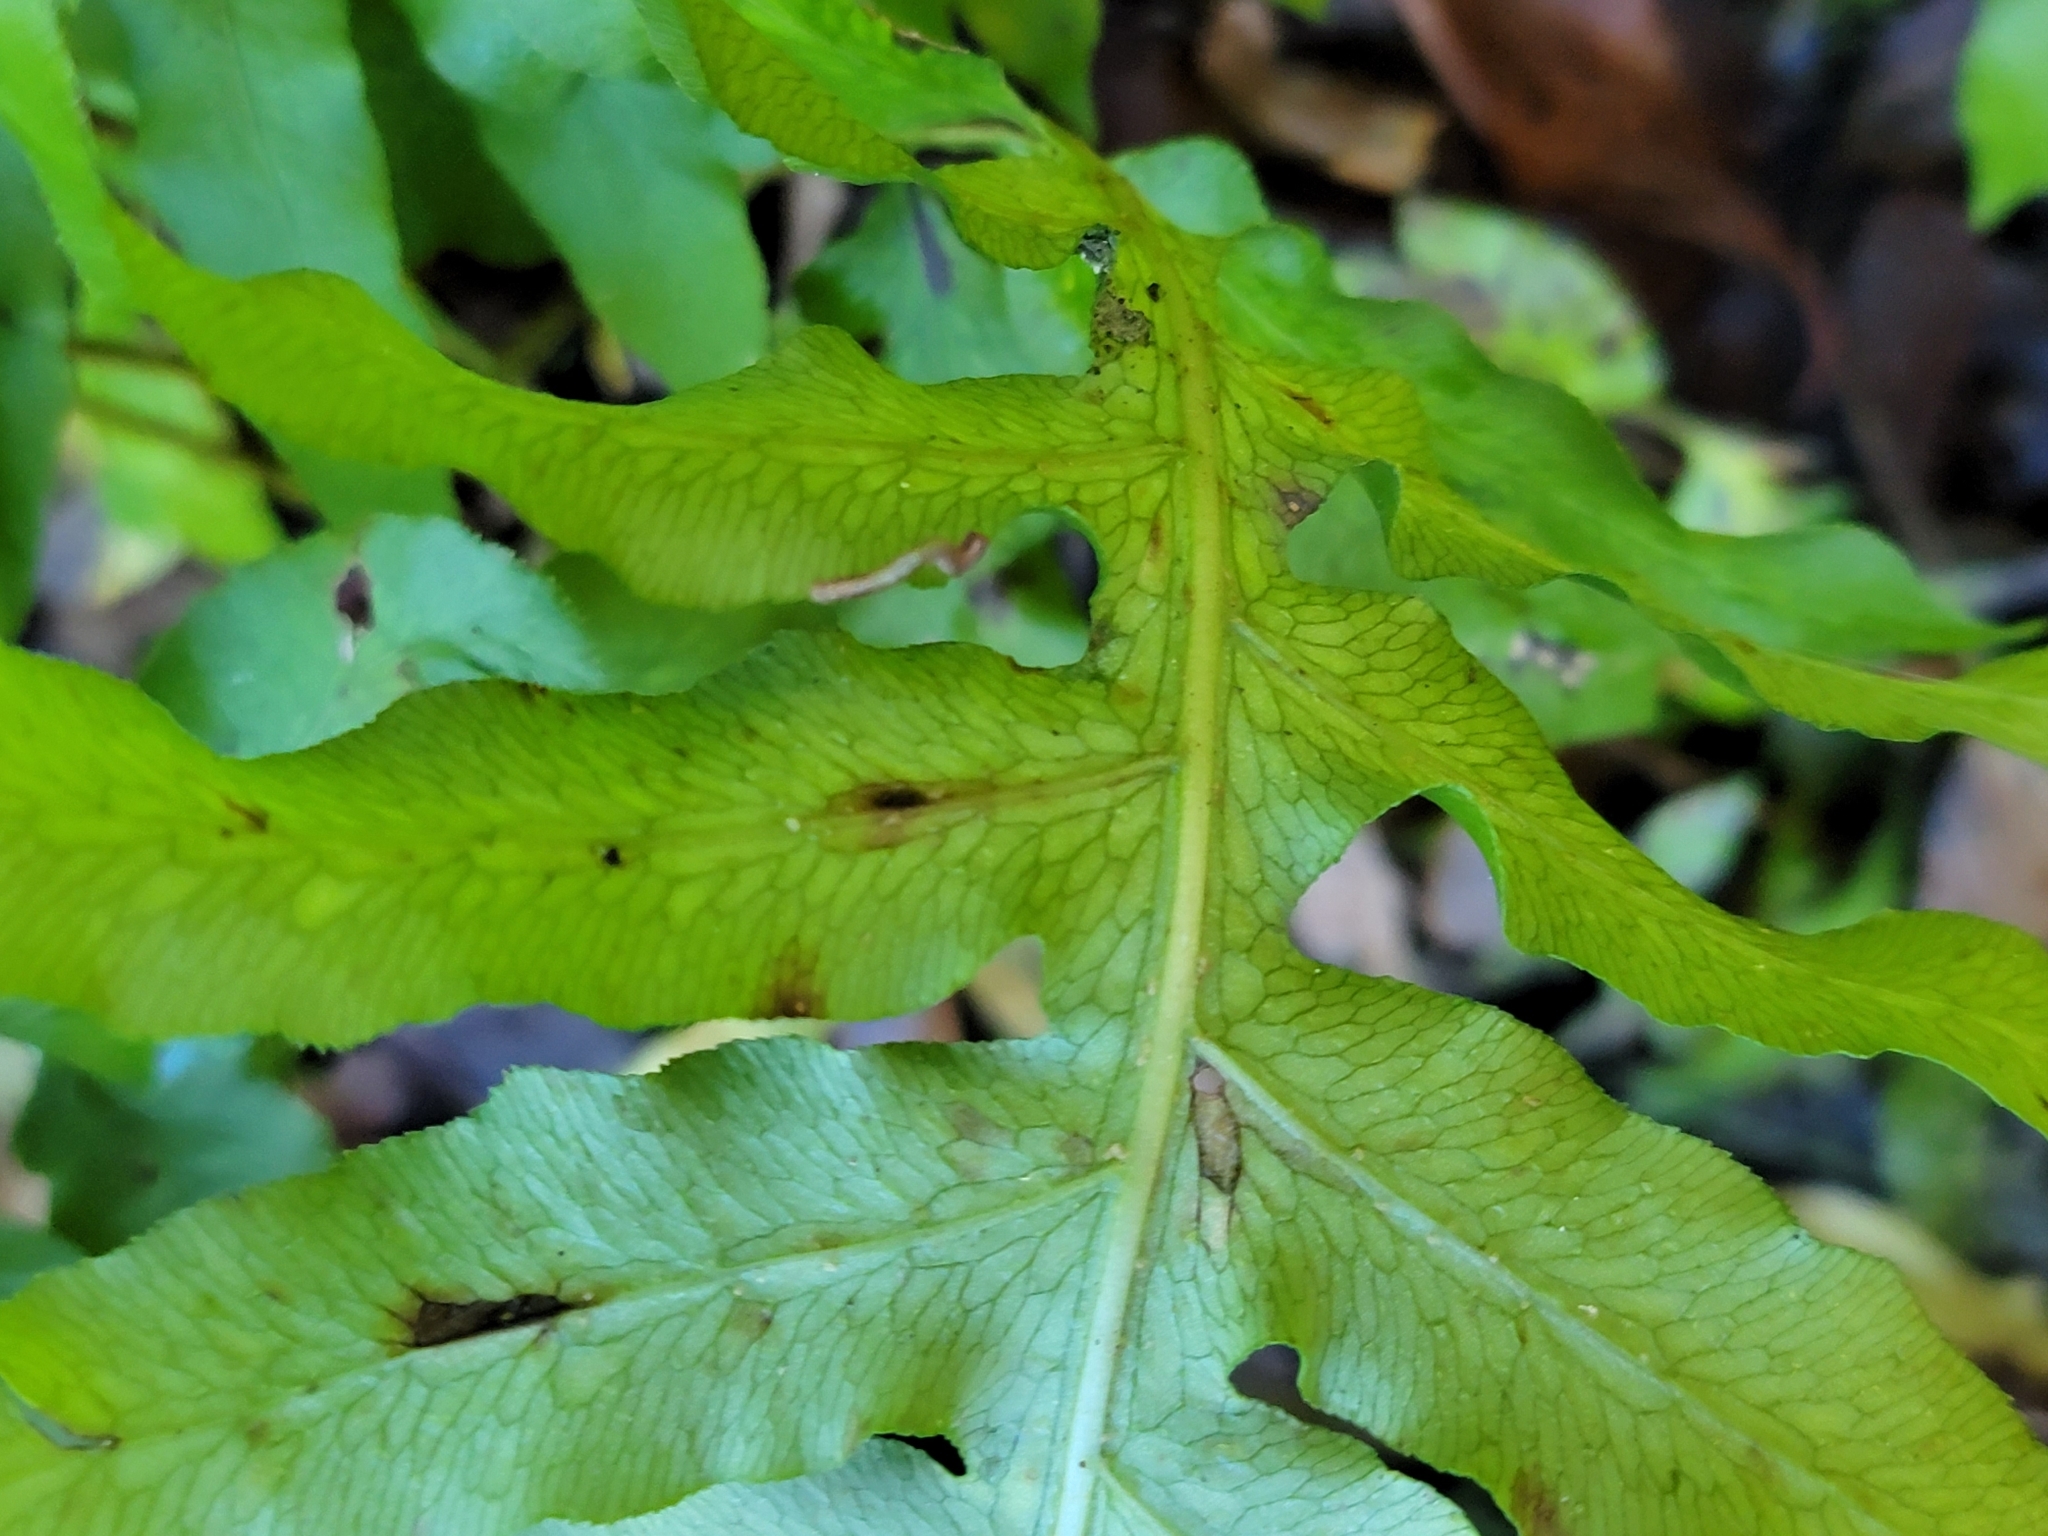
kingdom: Plantae
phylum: Tracheophyta
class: Polypodiopsida
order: Polypodiales
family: Blechnaceae
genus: Lorinseria
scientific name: Lorinseria areolata
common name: Dwarf chain fern
